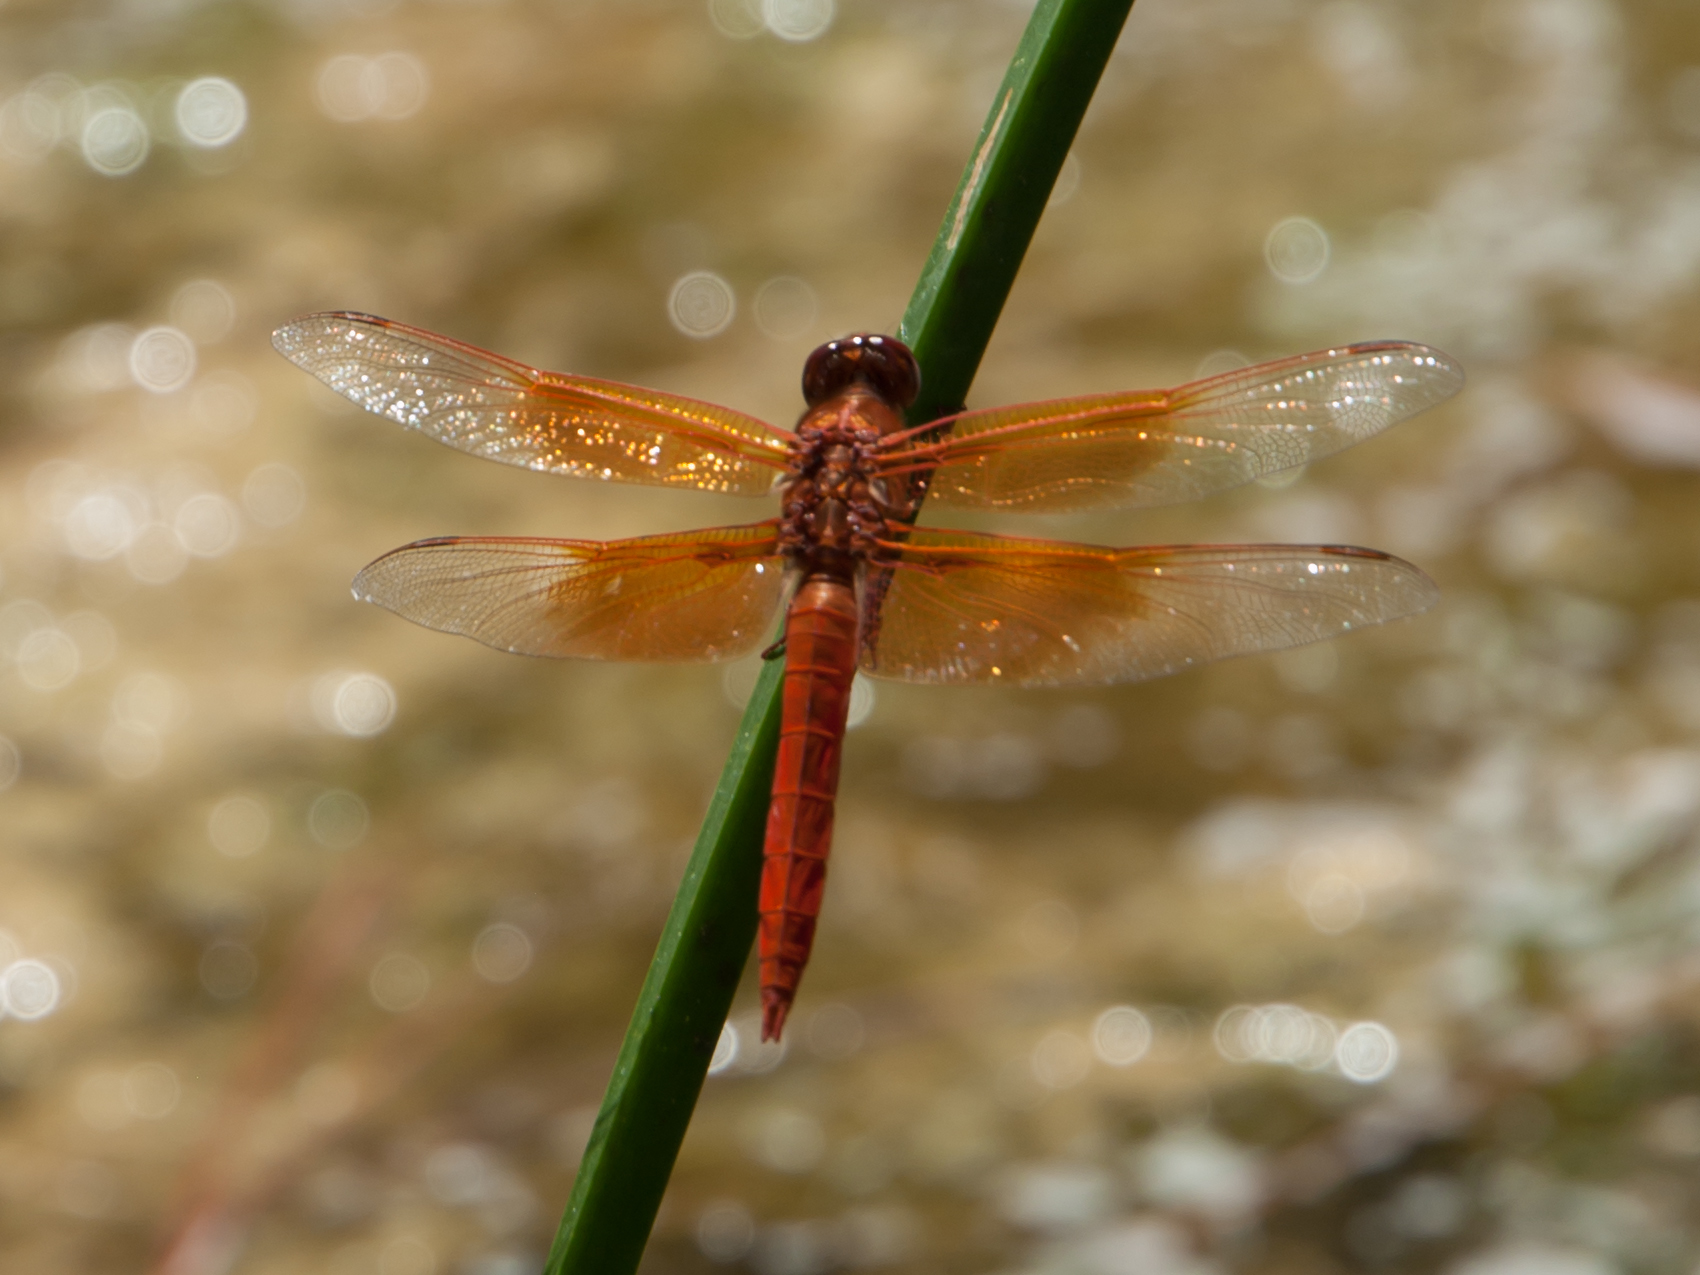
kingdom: Animalia
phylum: Arthropoda
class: Insecta
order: Odonata
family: Libellulidae
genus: Libellula
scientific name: Libellula saturata
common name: Flame skimmer
